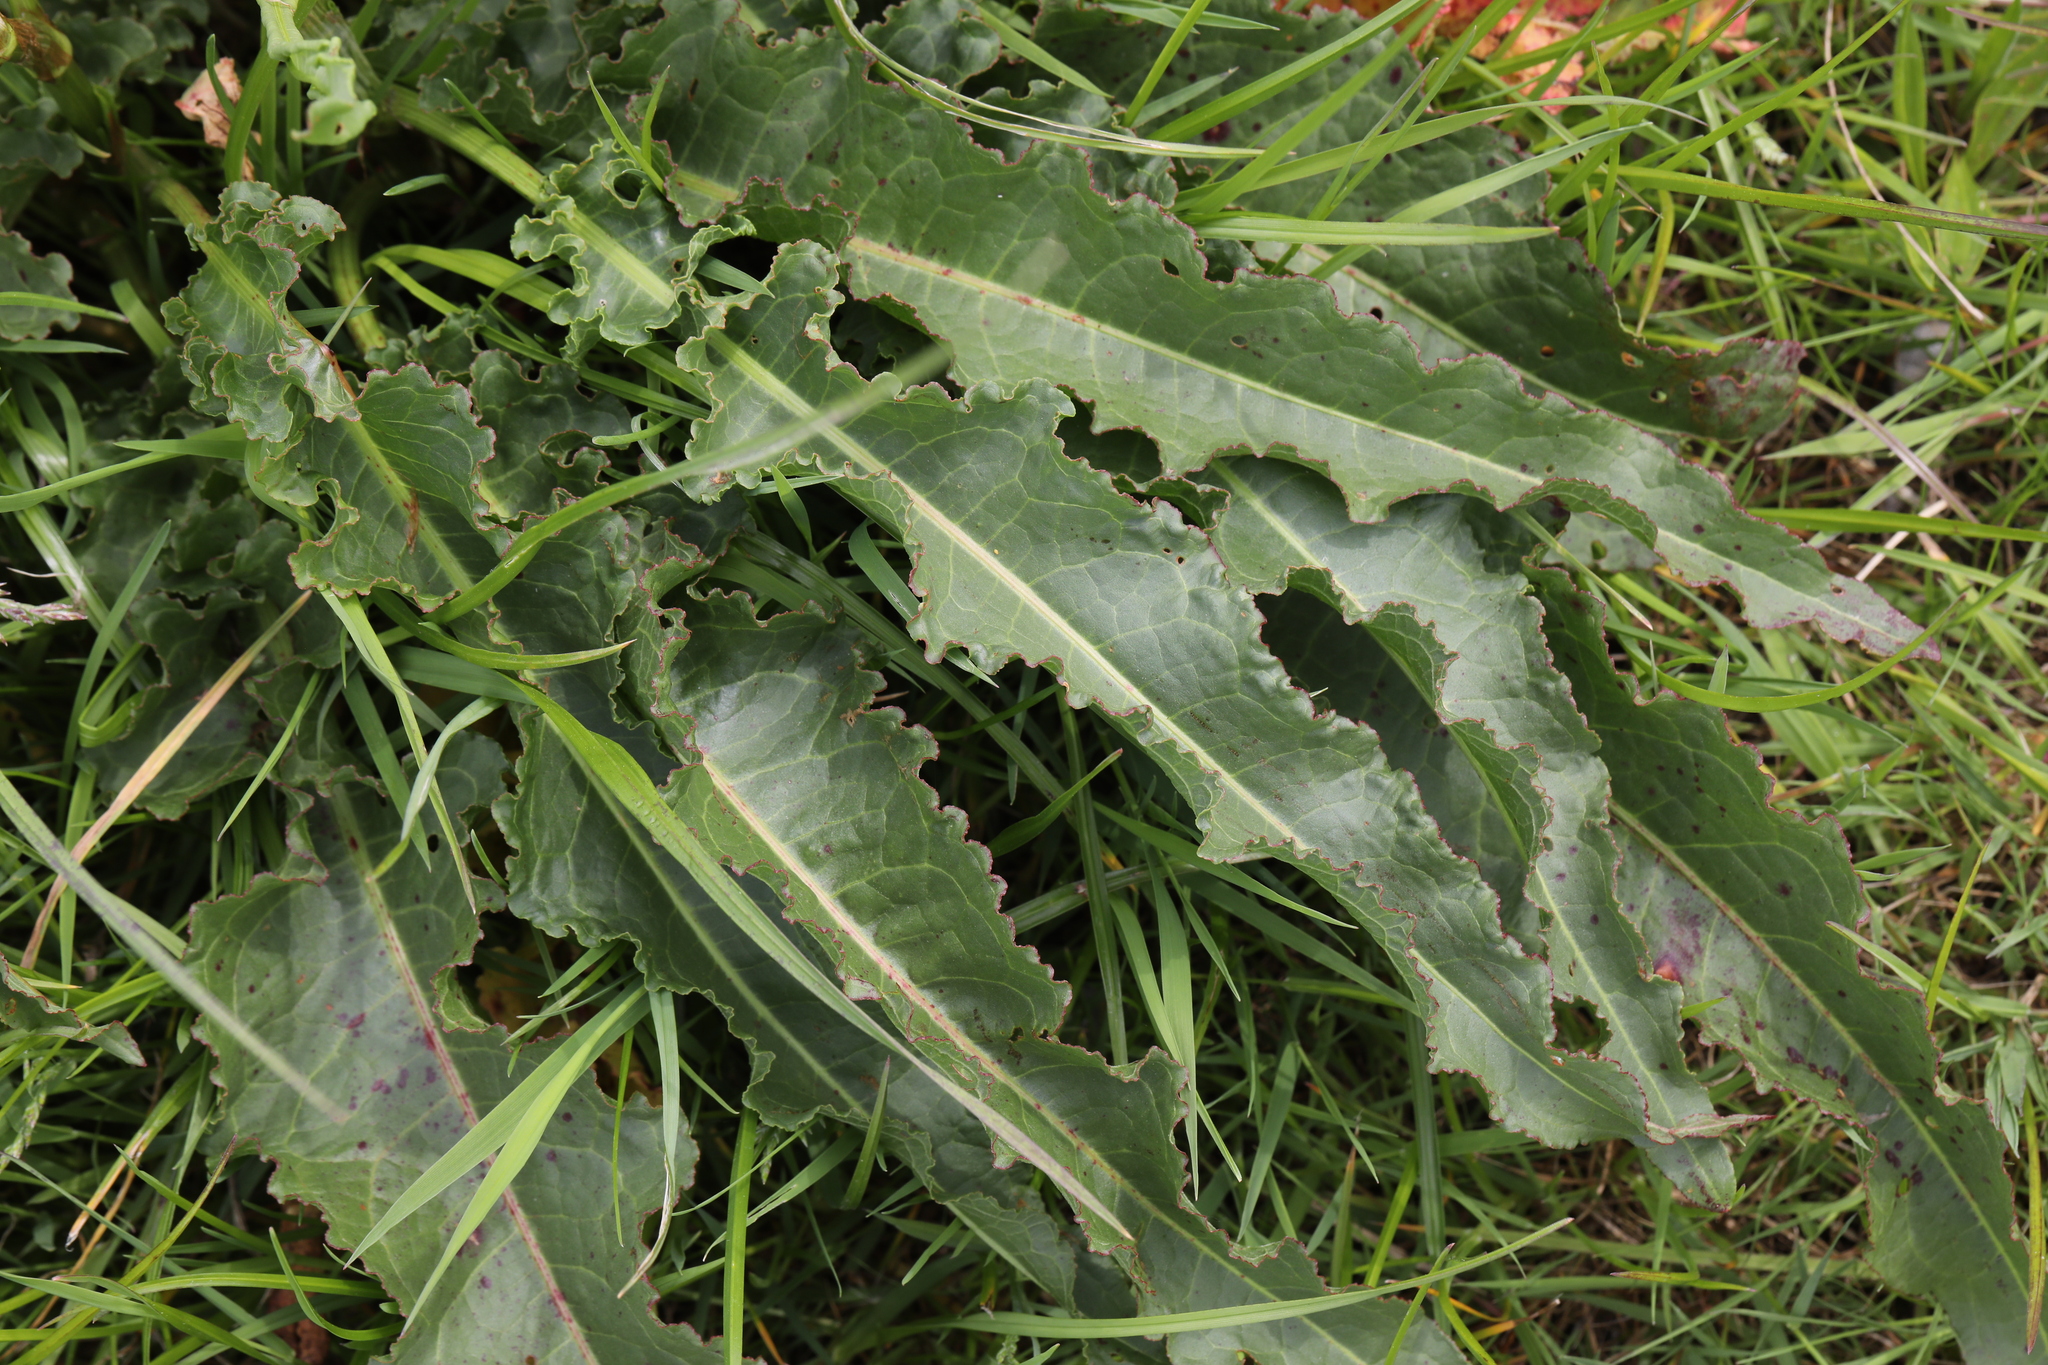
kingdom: Plantae
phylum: Tracheophyta
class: Magnoliopsida
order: Caryophyllales
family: Polygonaceae
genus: Rumex
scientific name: Rumex crispus
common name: Curled dock
